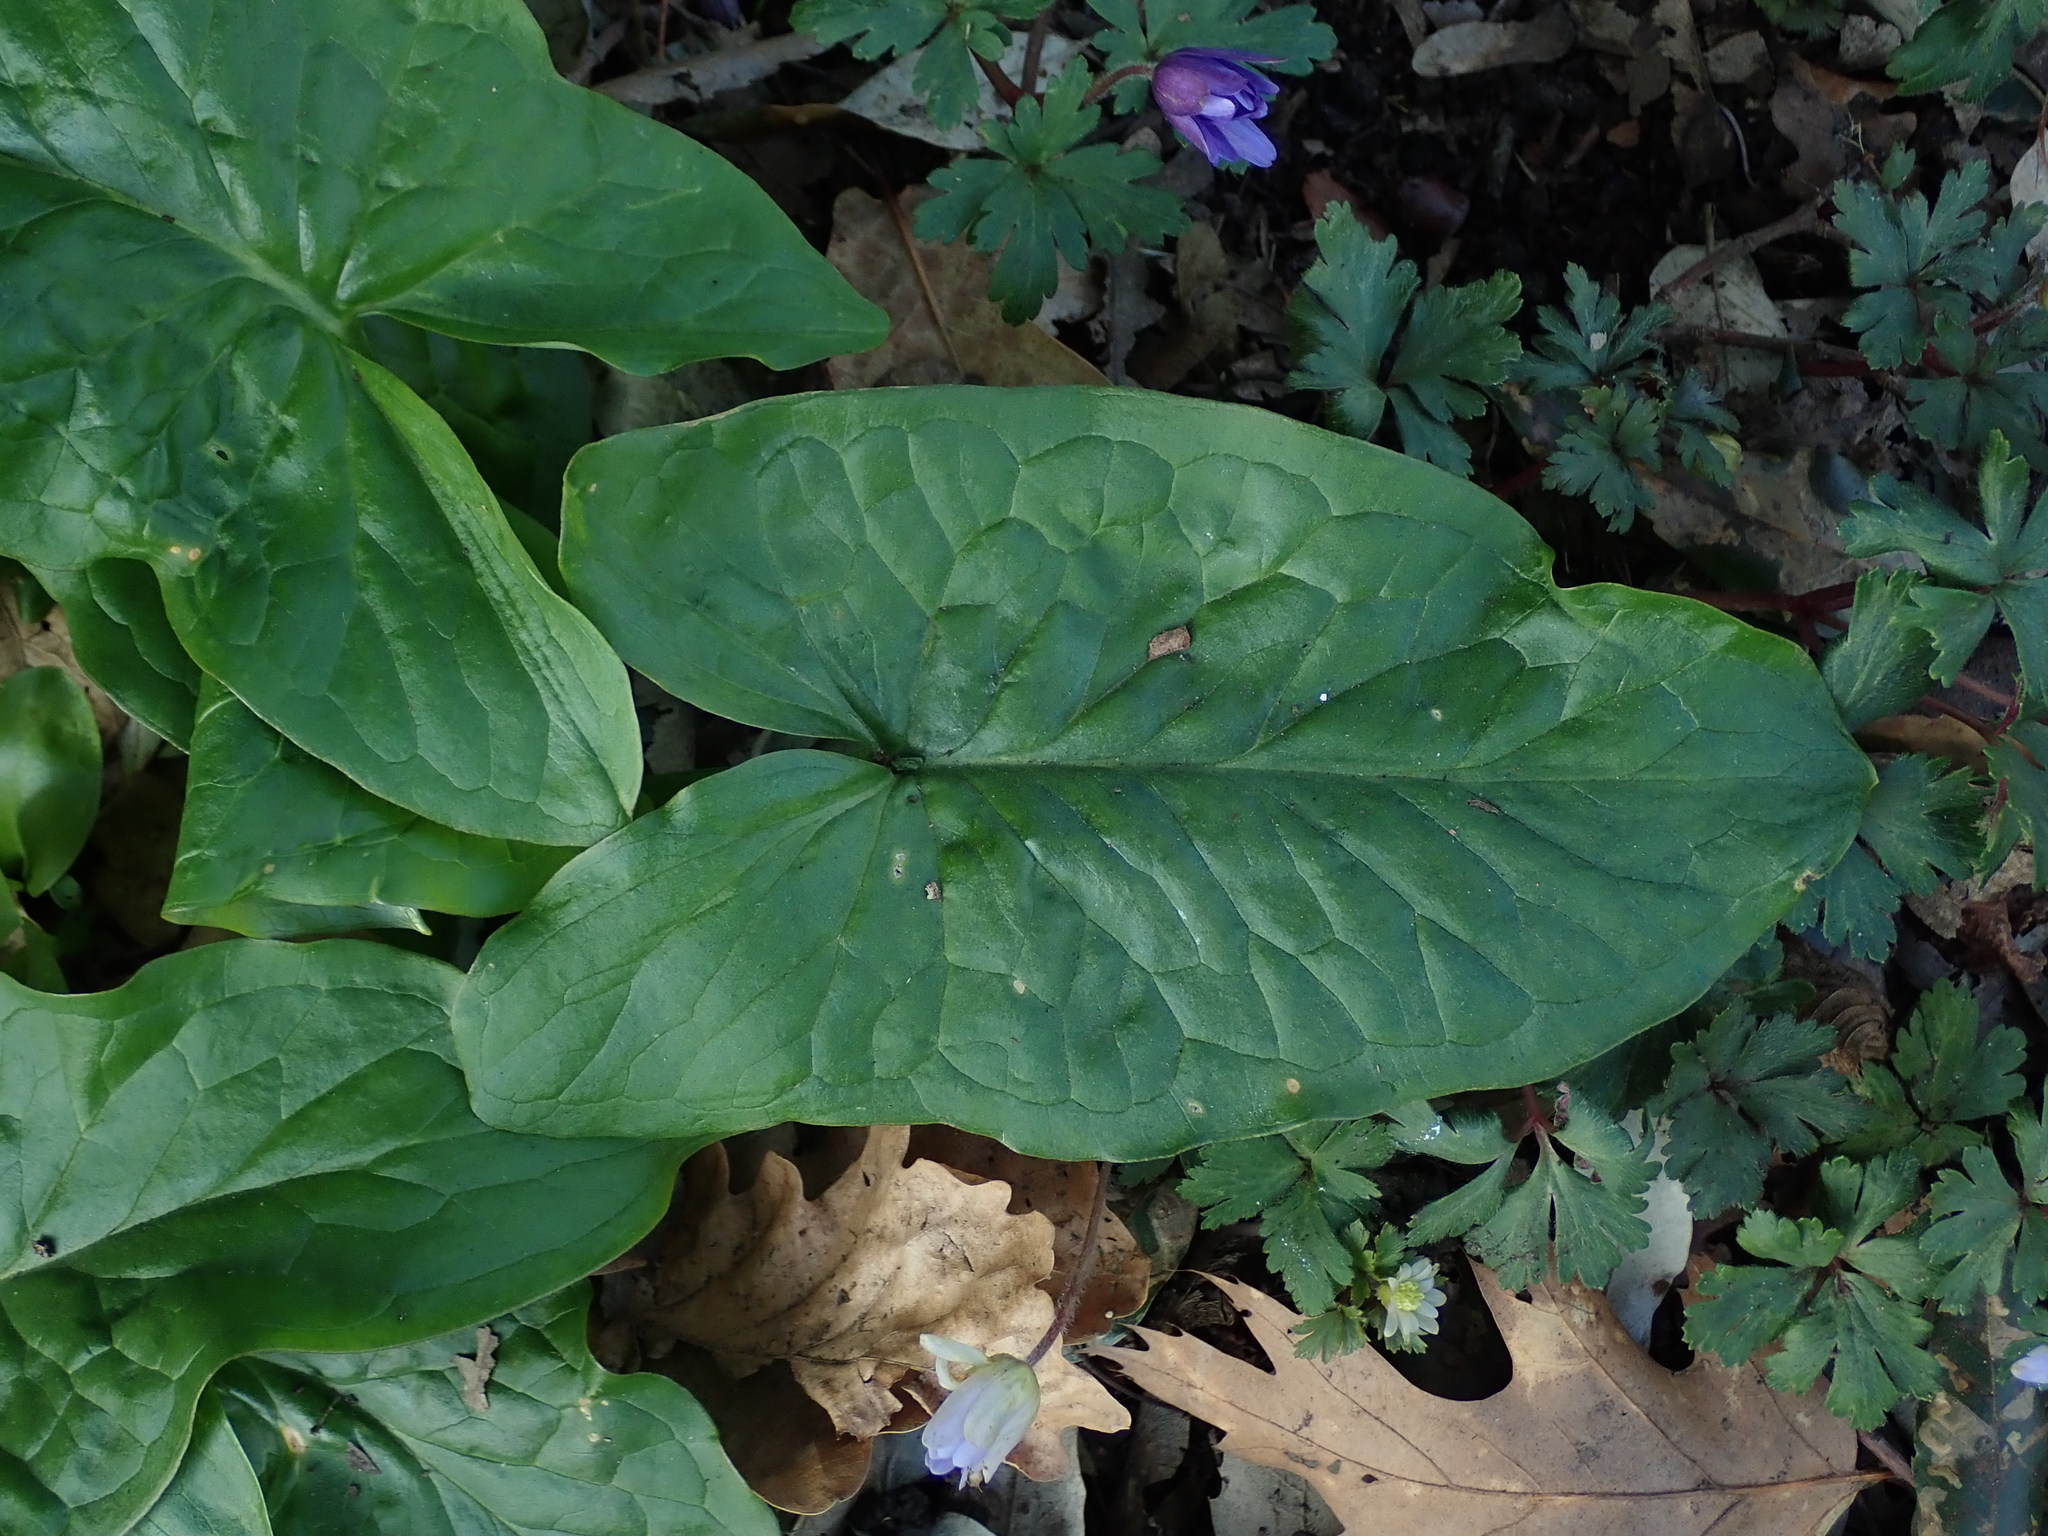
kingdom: Plantae
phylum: Tracheophyta
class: Liliopsida
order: Alismatales
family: Araceae
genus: Arum
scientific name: Arum maculatum
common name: Lords-and-ladies
